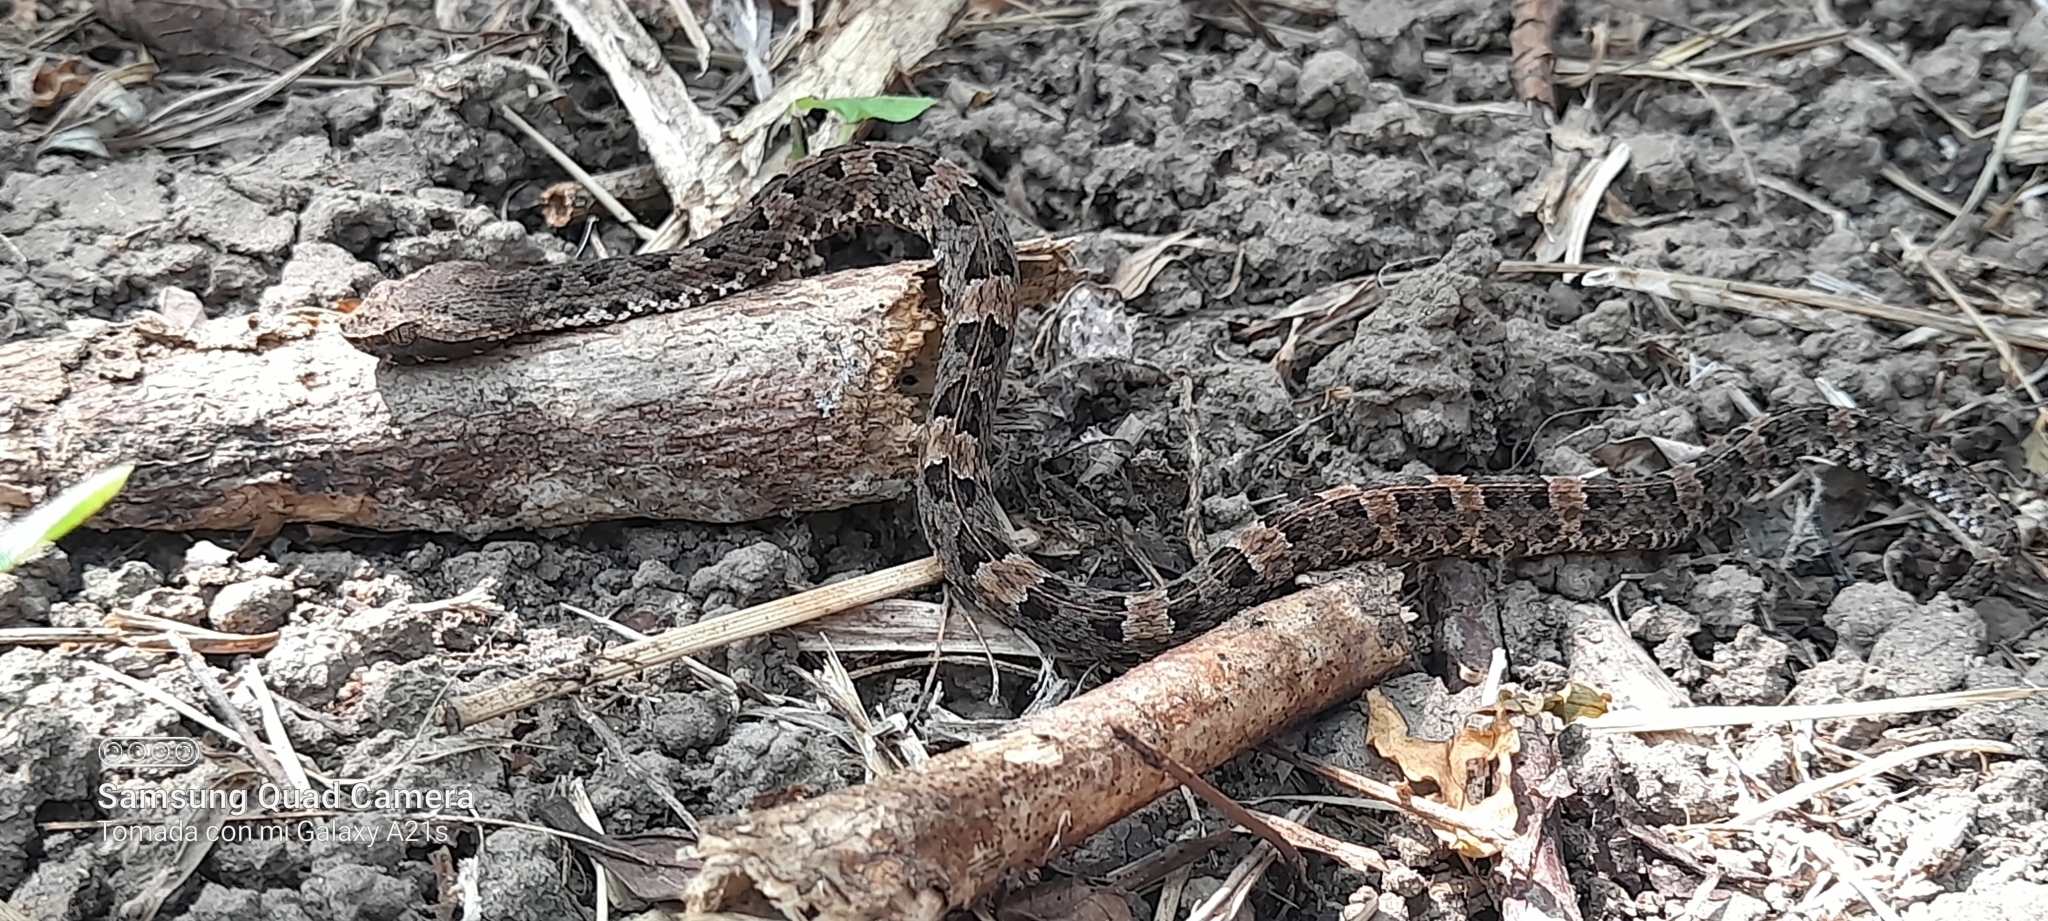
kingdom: Animalia
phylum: Chordata
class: Squamata
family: Viperidae
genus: Porthidium
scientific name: Porthidium lansbergii
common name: Lansberg's hognosed pit viper
